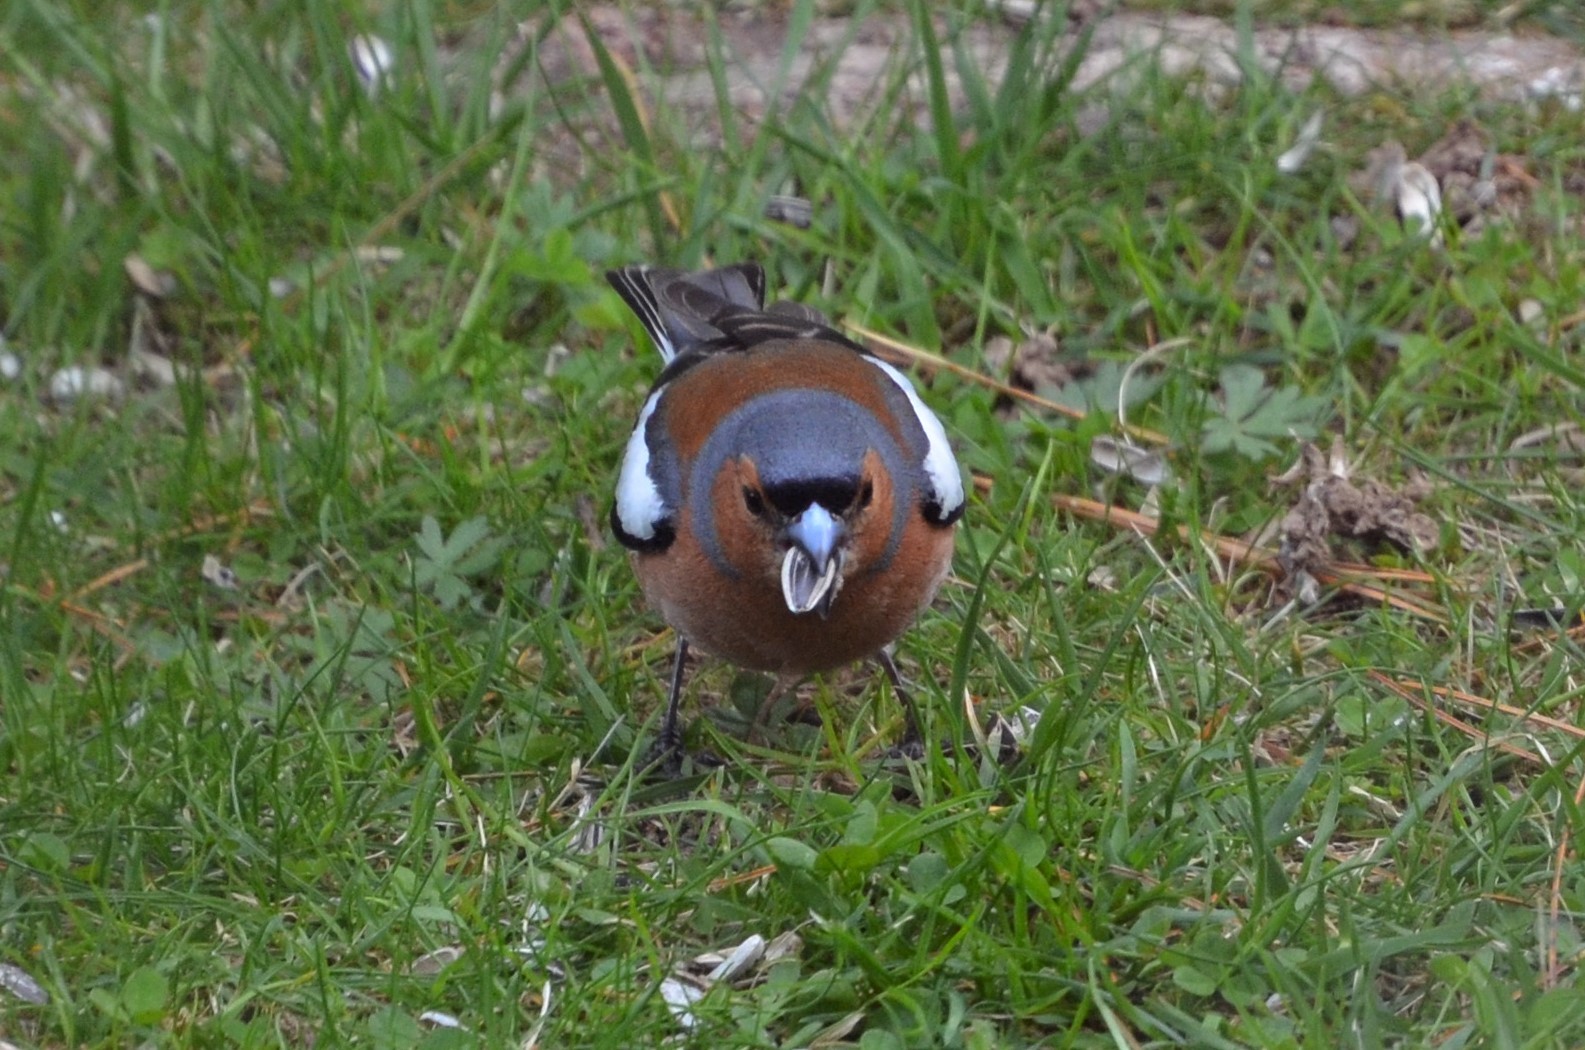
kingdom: Animalia
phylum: Chordata
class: Aves
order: Passeriformes
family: Fringillidae
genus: Fringilla
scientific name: Fringilla coelebs
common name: Common chaffinch
